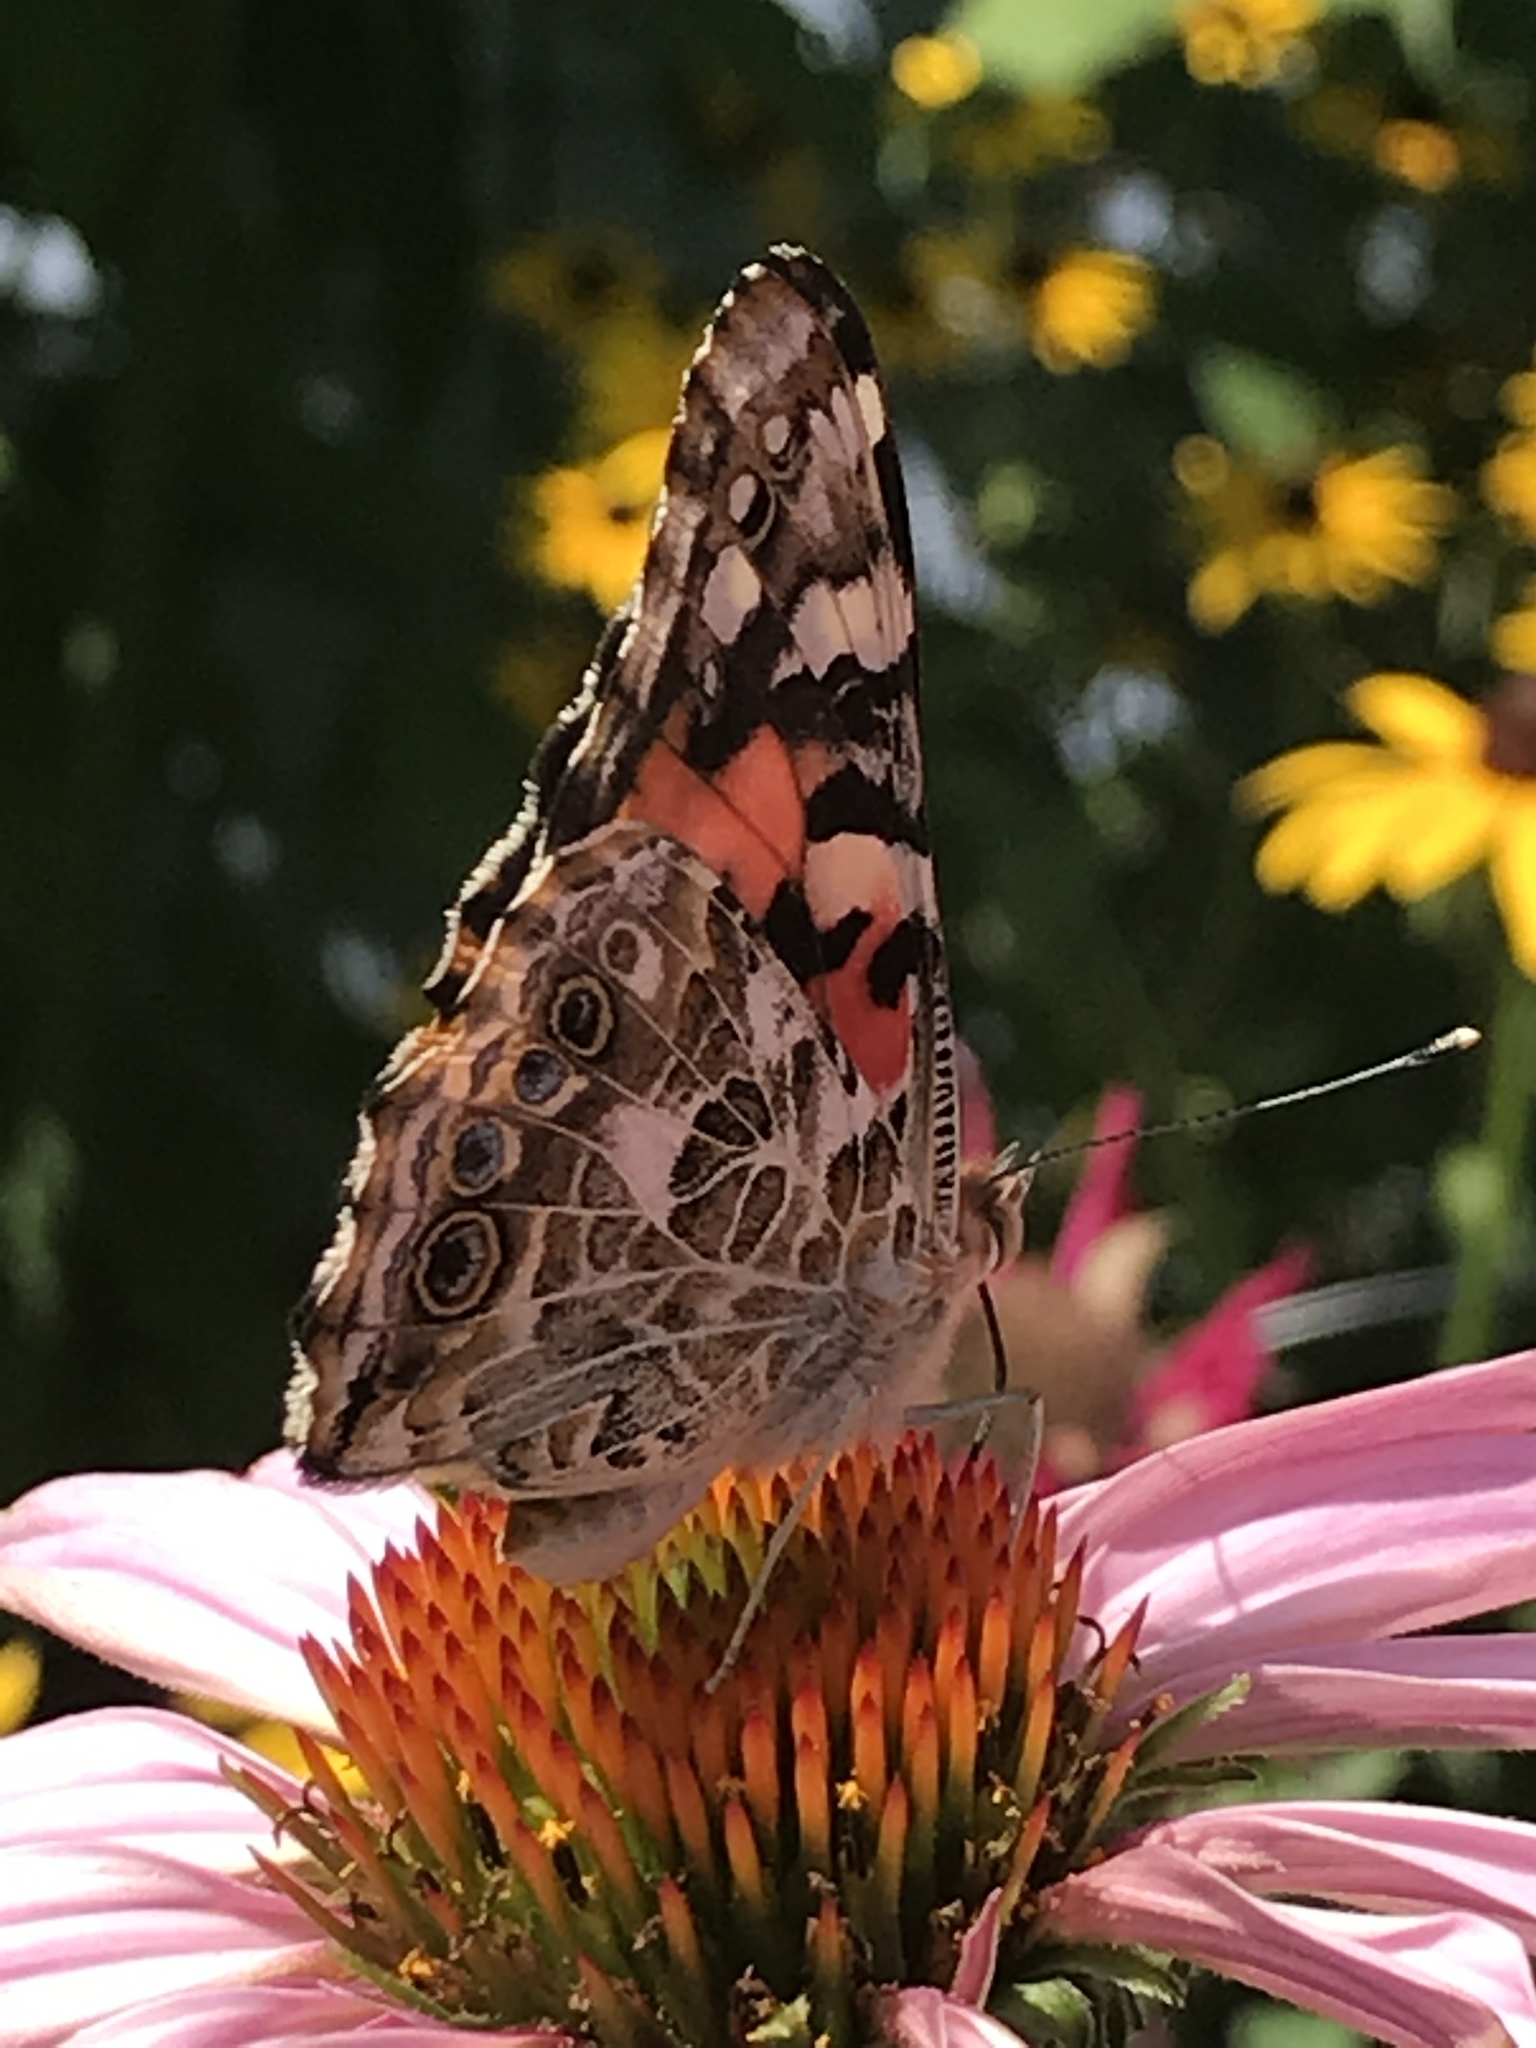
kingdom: Animalia
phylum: Arthropoda
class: Insecta
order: Lepidoptera
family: Nymphalidae
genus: Vanessa
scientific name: Vanessa cardui
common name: Painted lady
